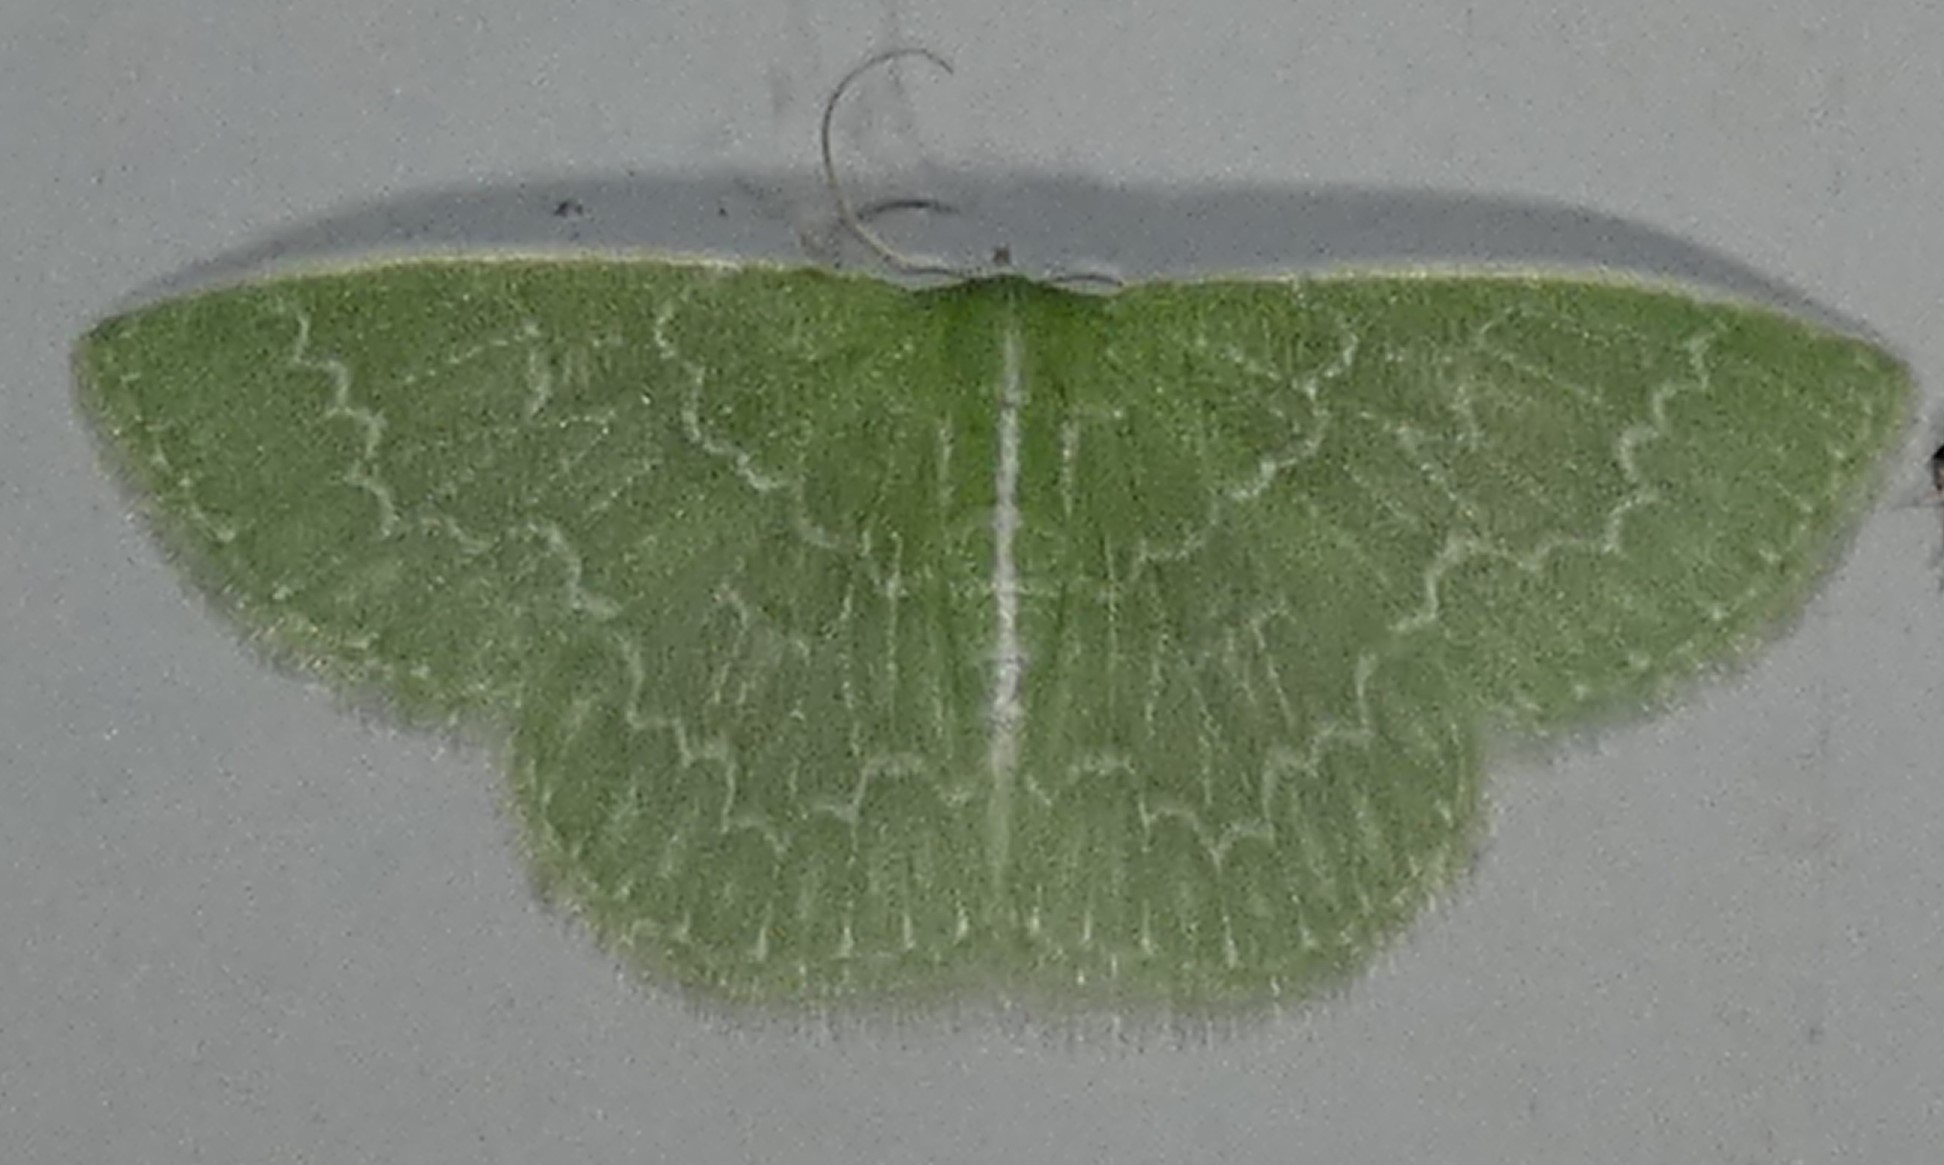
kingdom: Animalia
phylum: Arthropoda
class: Insecta
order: Lepidoptera
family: Geometridae
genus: Synchlora
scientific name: Synchlora frondaria
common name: Southern emerald
